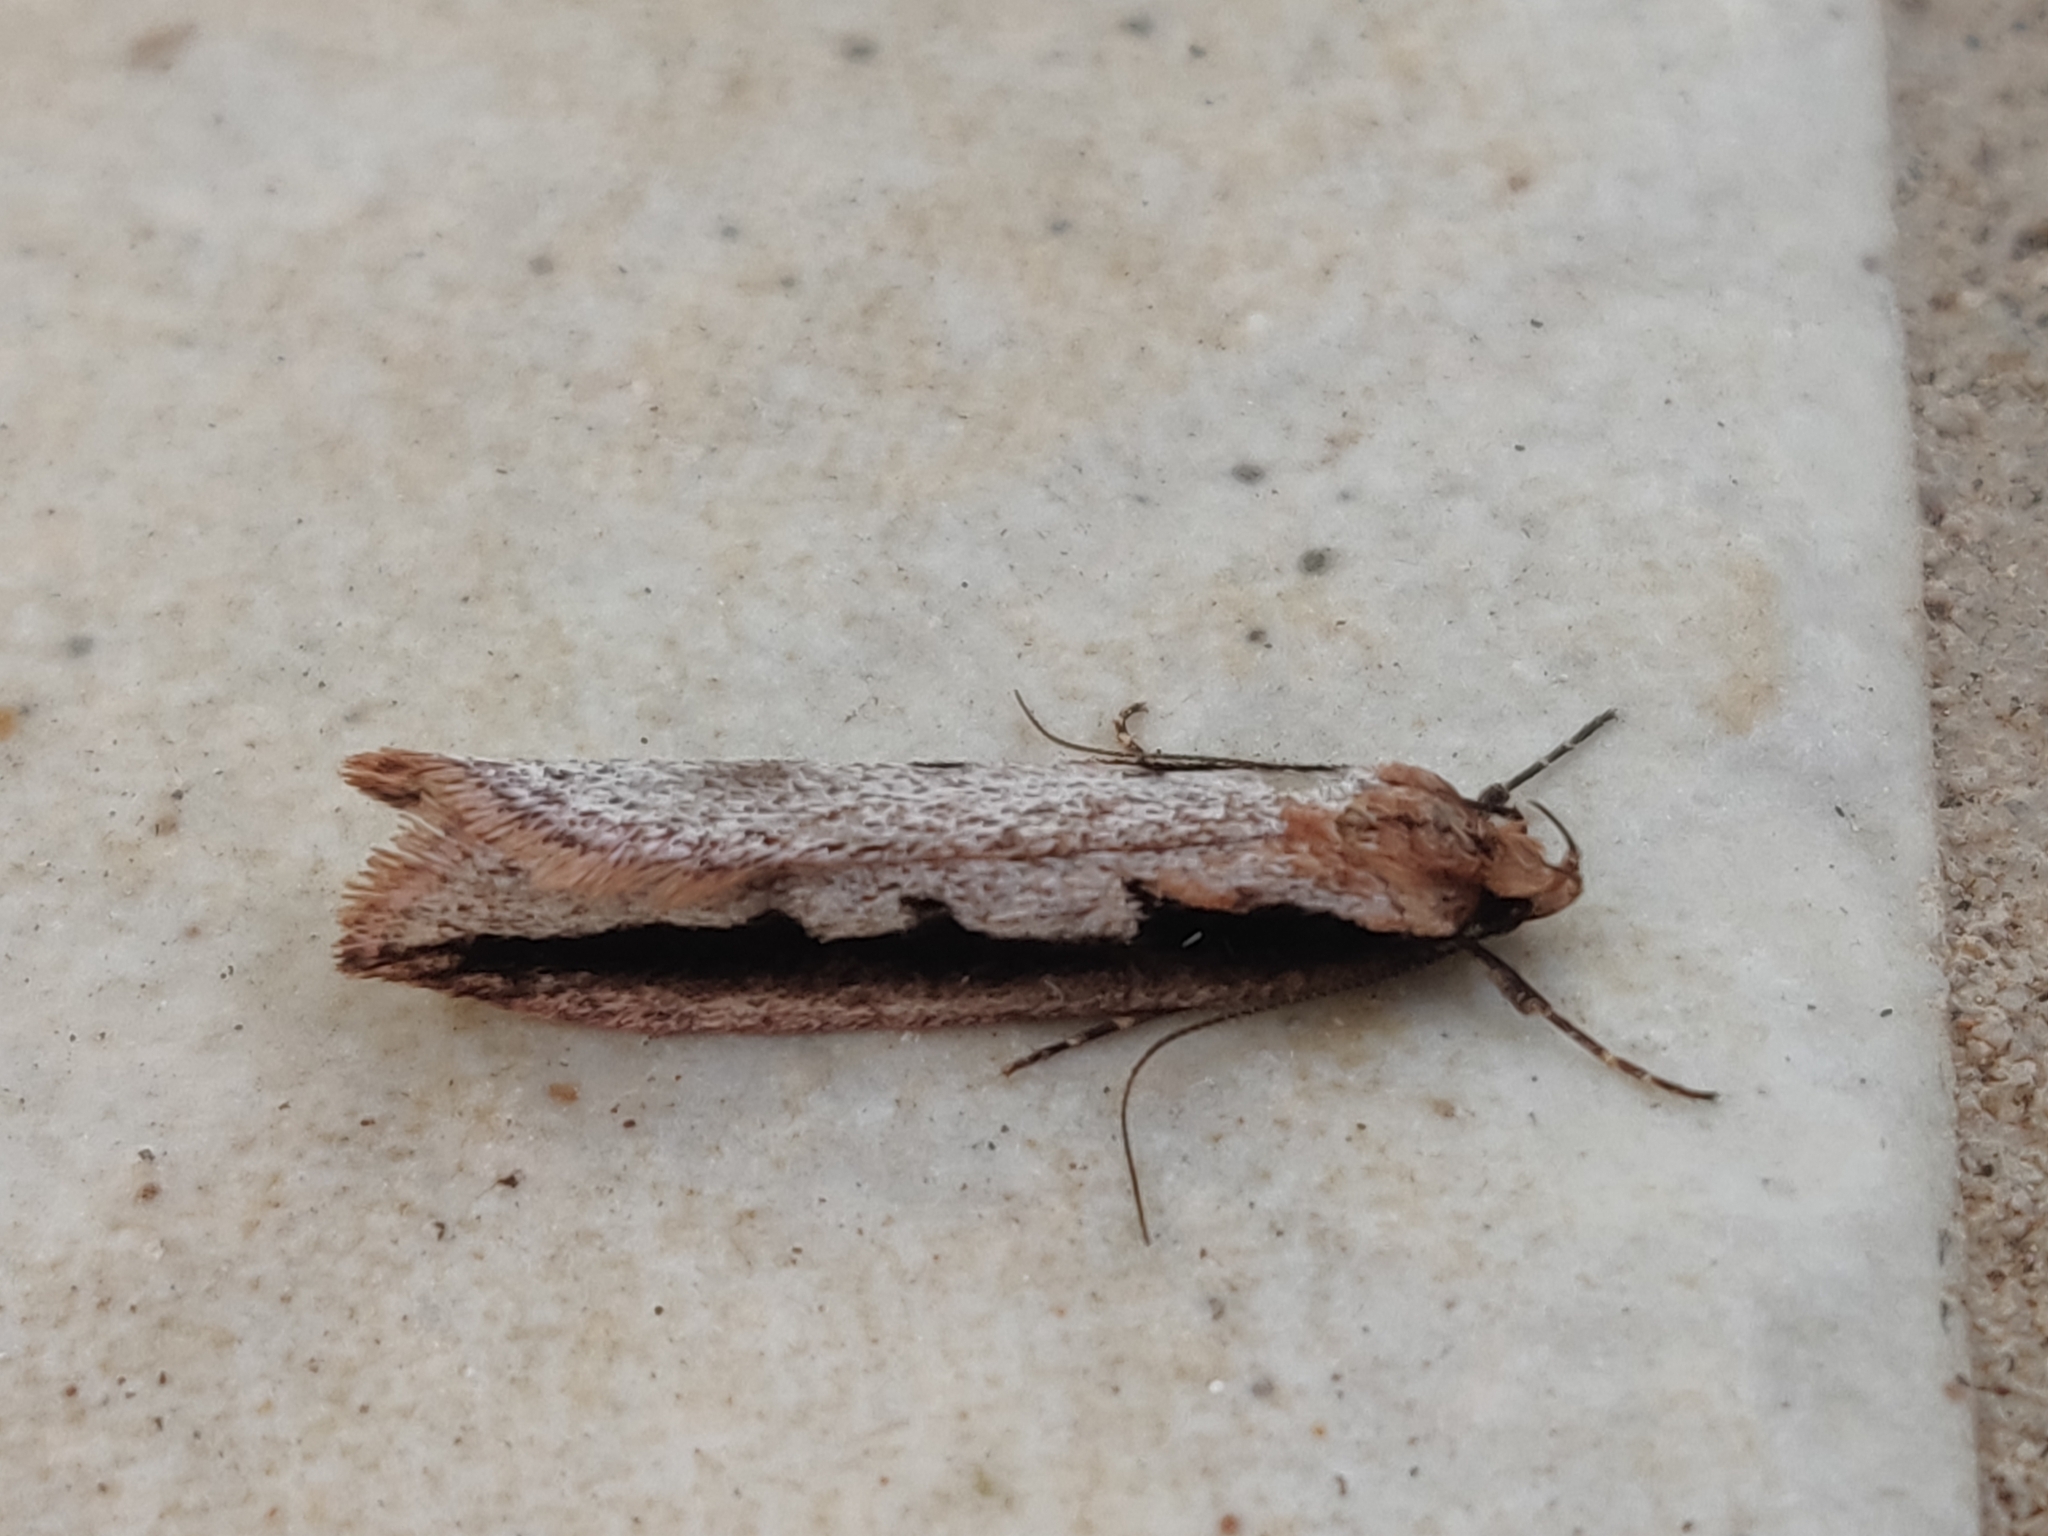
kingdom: Animalia
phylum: Arthropoda
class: Insecta
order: Lepidoptera
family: Oecophoridae
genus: Leptocroca
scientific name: Leptocroca sanguinolenta
